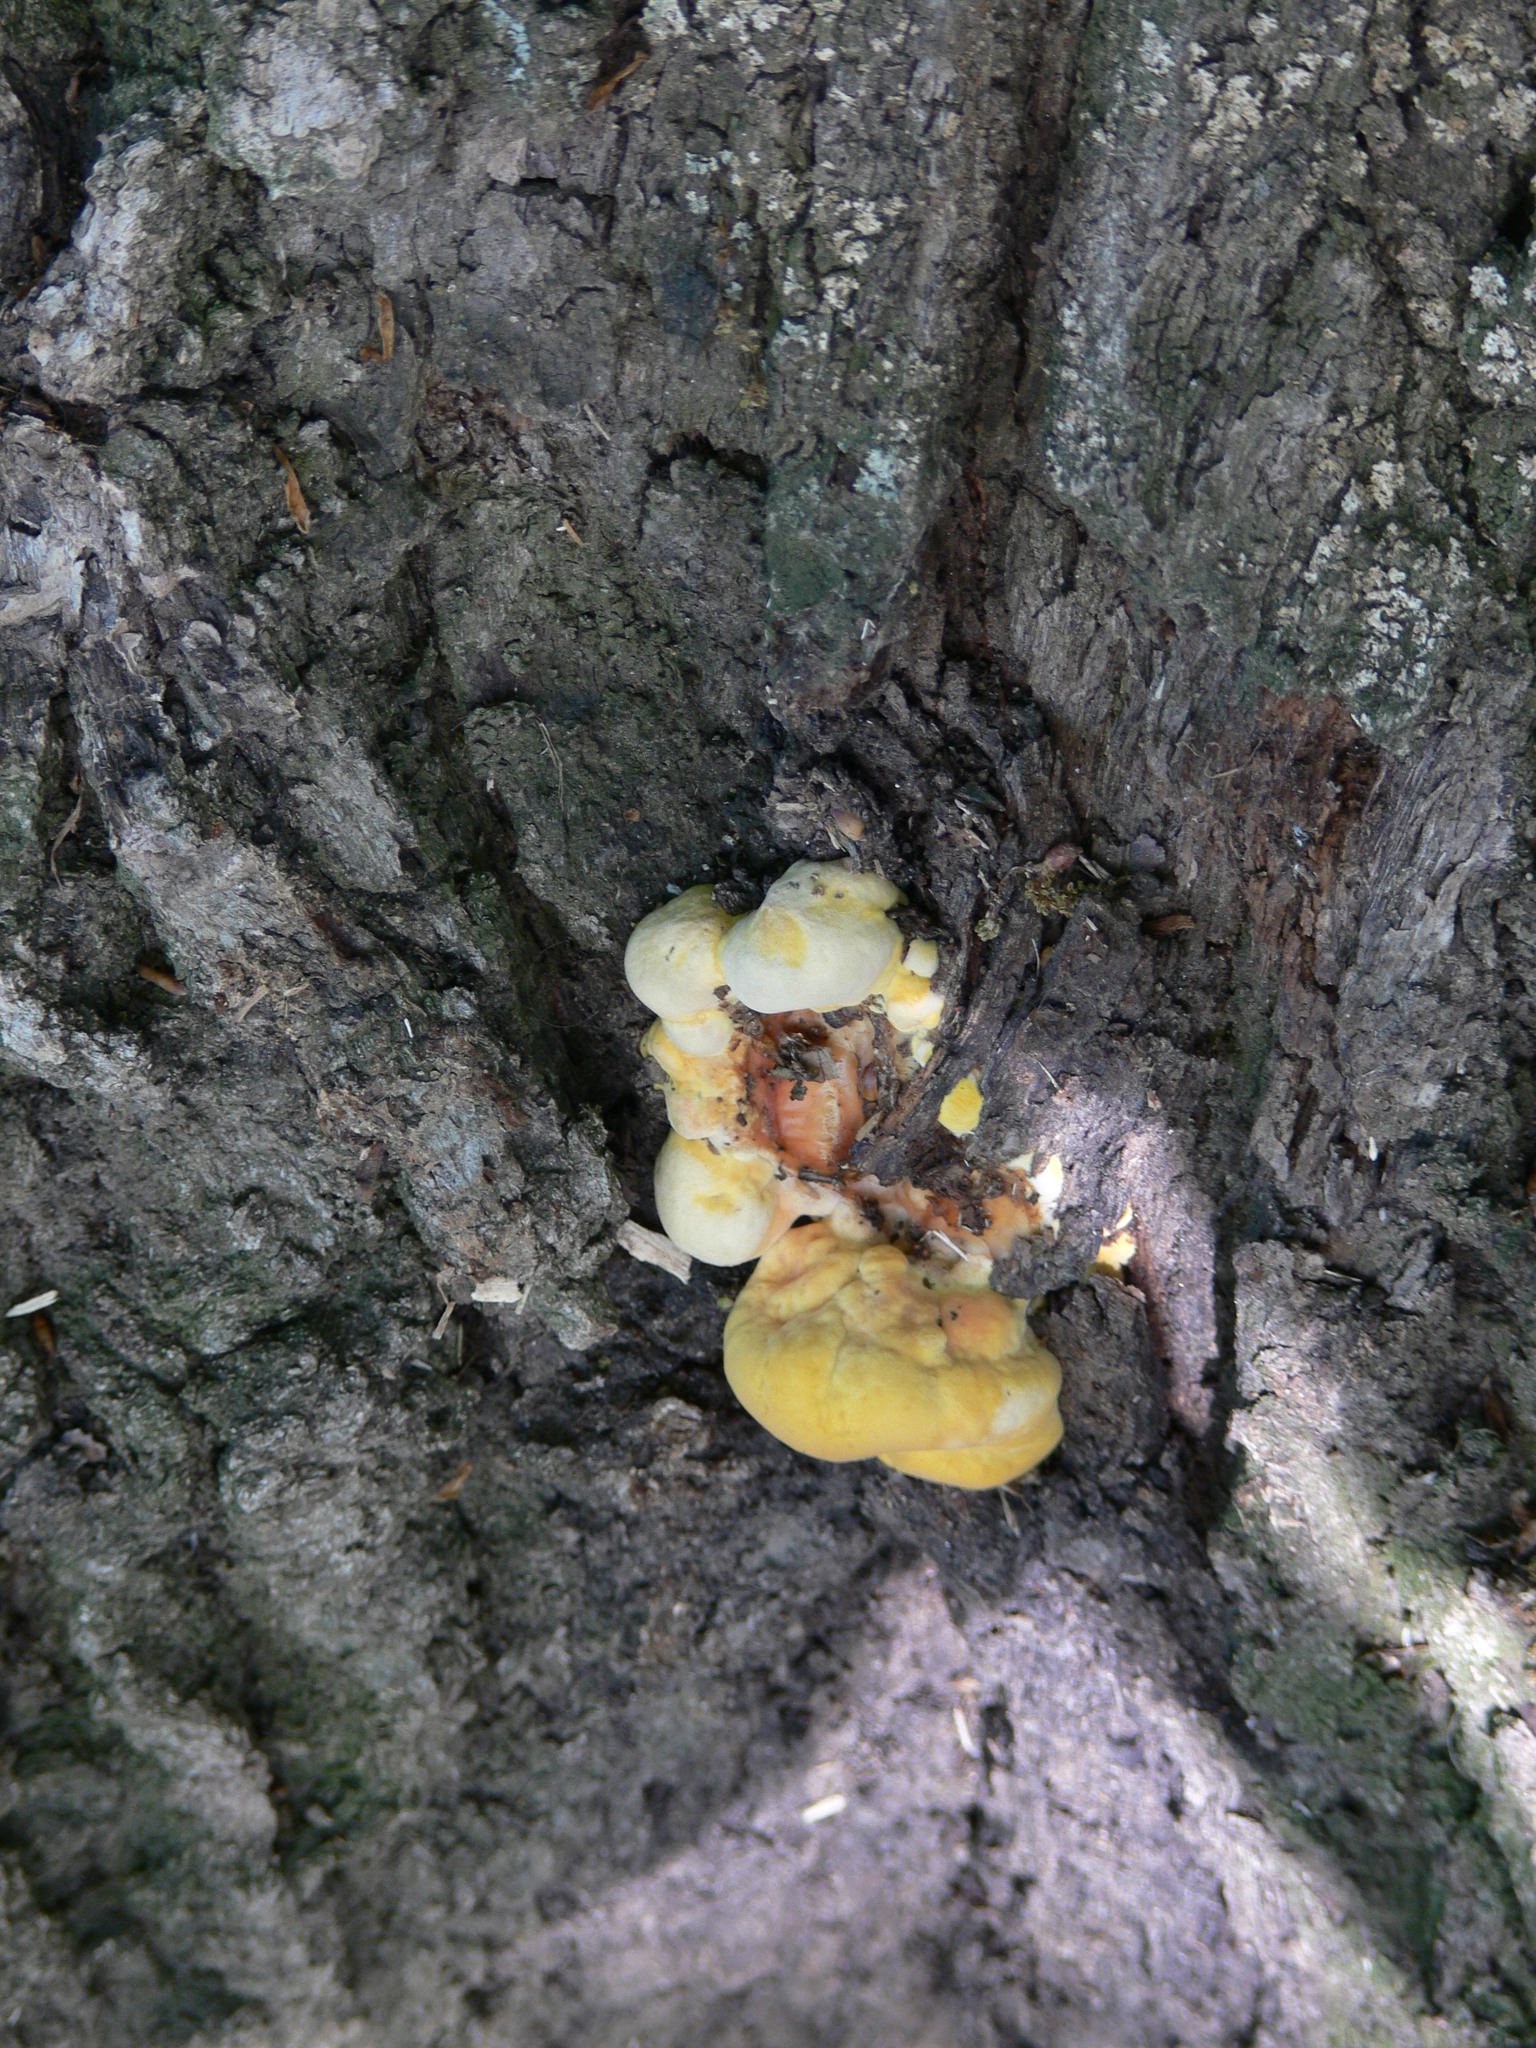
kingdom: Fungi
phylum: Basidiomycota
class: Agaricomycetes
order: Polyporales
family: Laetiporaceae
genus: Laetiporus
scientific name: Laetiporus sulphureus
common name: Chicken of the woods
